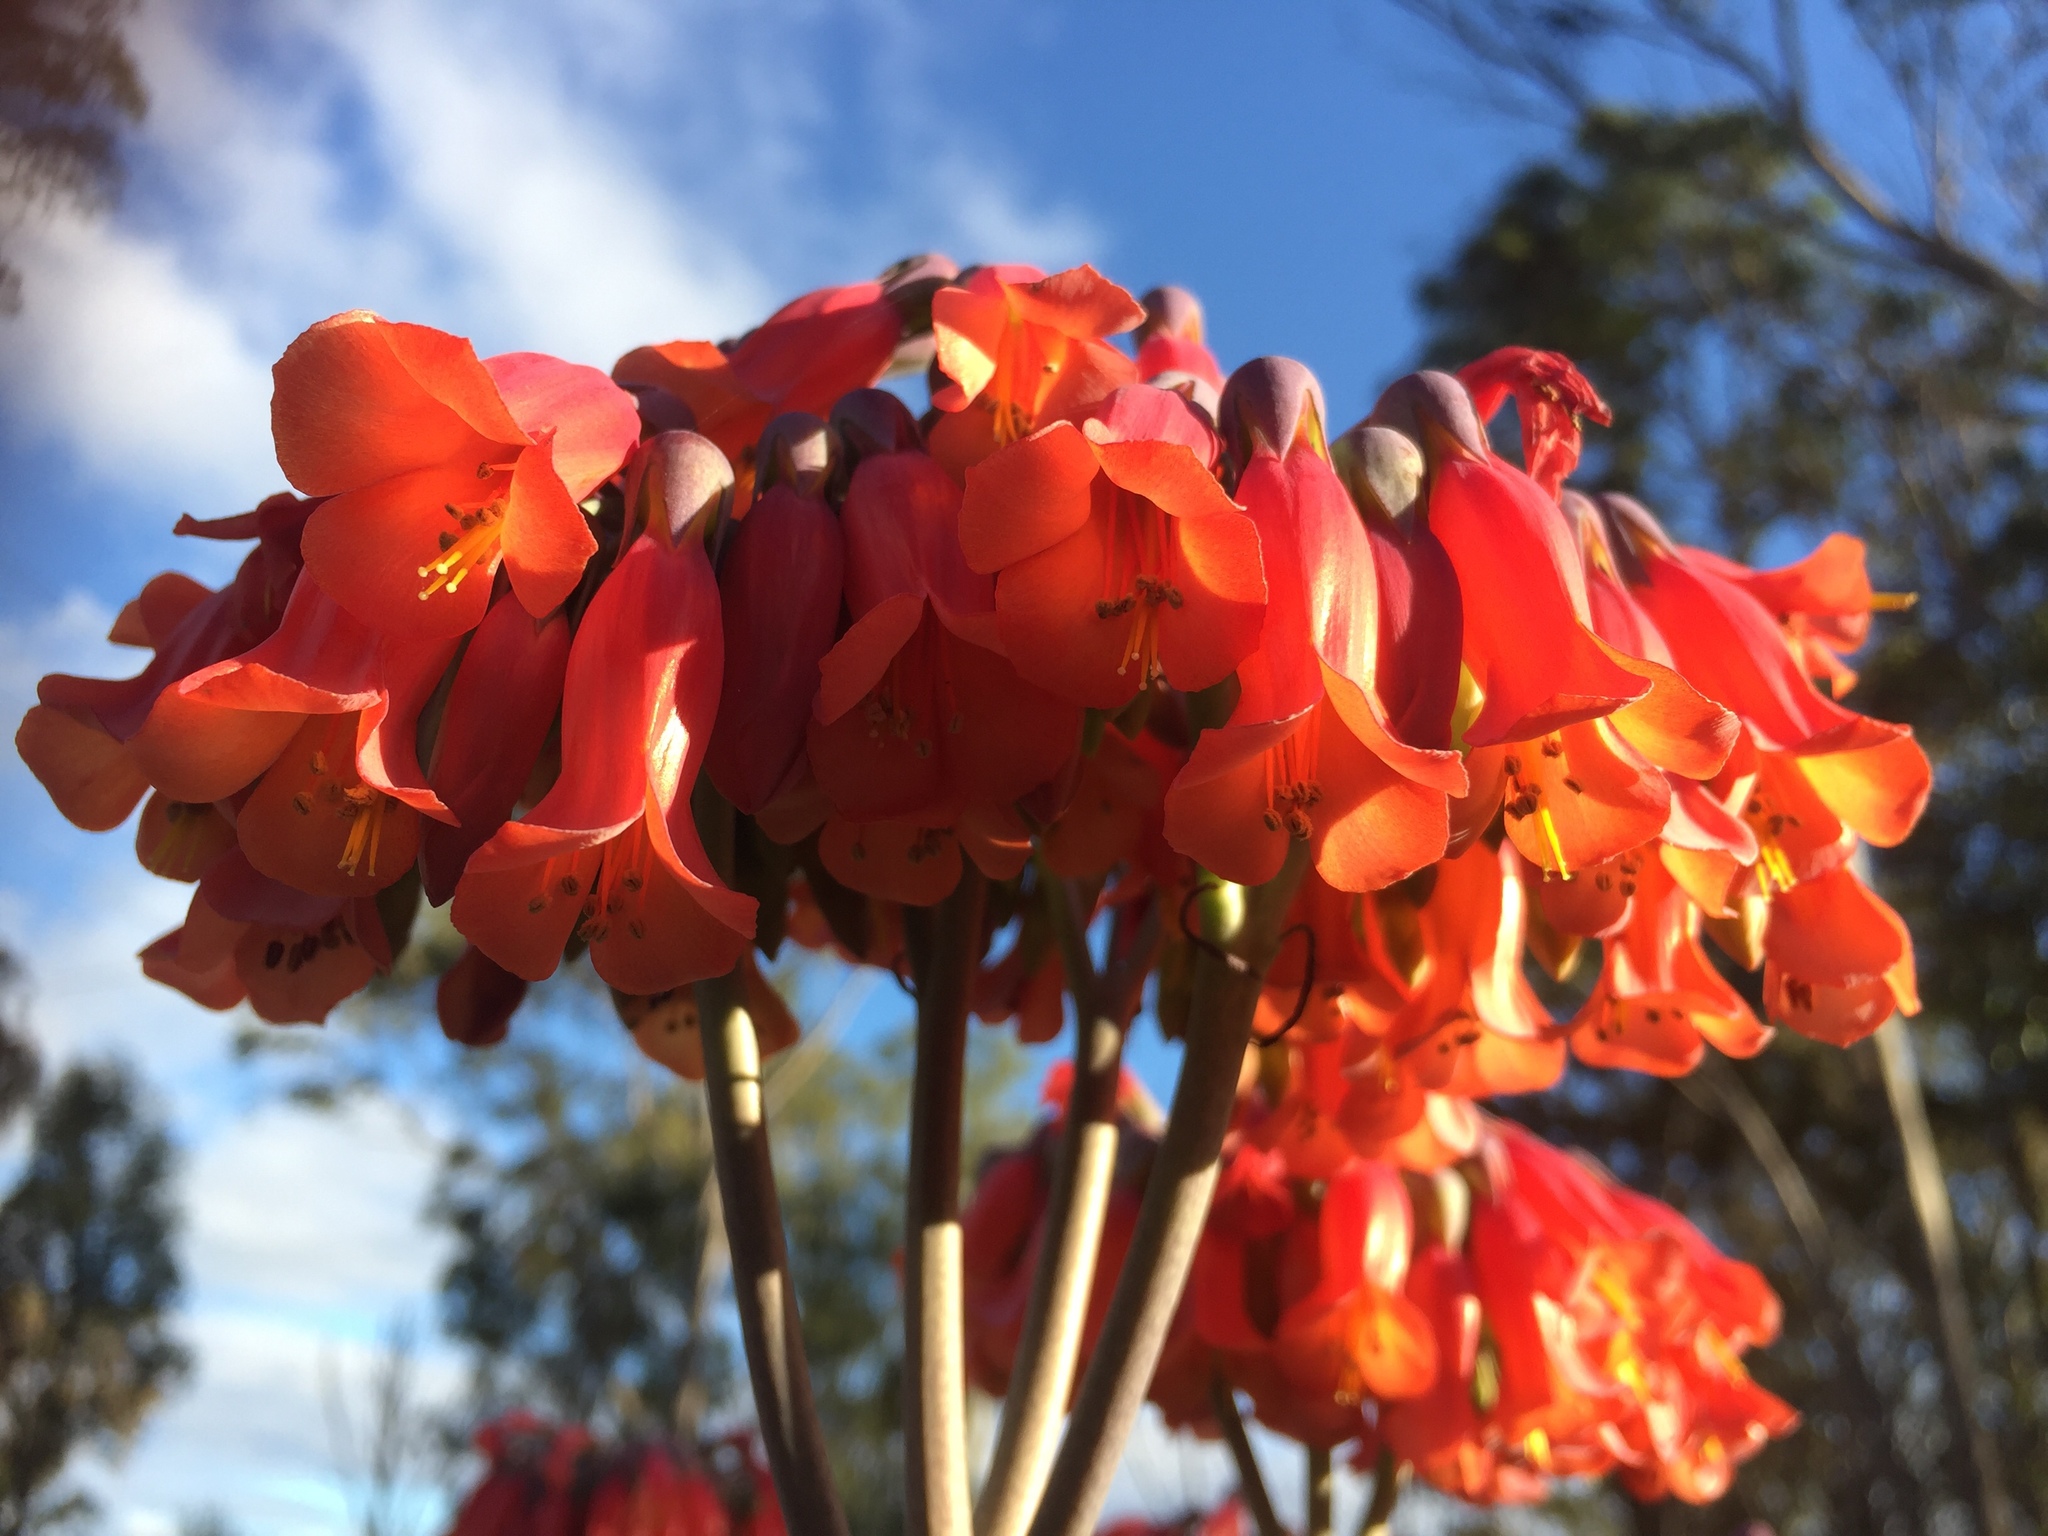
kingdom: Plantae
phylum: Tracheophyta
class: Magnoliopsida
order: Saxifragales
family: Crassulaceae
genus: Kalanchoe
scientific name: Kalanchoe delagoensis
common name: Chandelier plant
